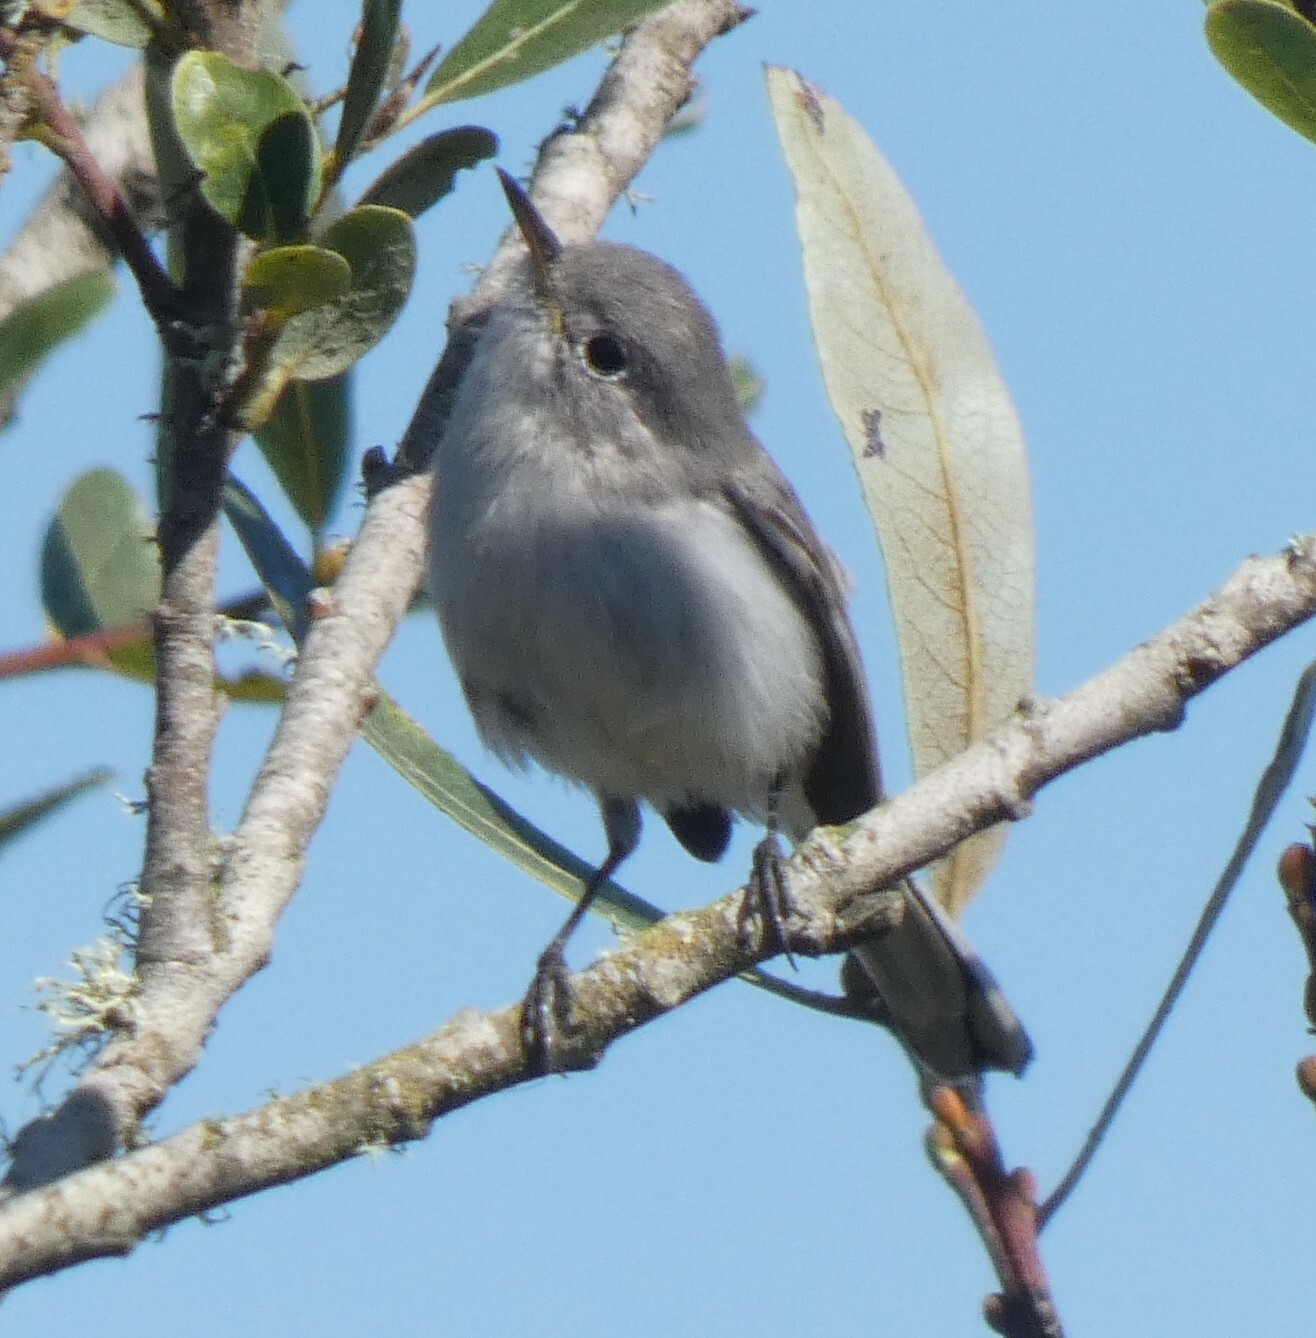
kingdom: Animalia
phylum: Chordata
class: Aves
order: Passeriformes
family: Polioptilidae
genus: Polioptila
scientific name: Polioptila caerulea
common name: Blue-gray gnatcatcher
